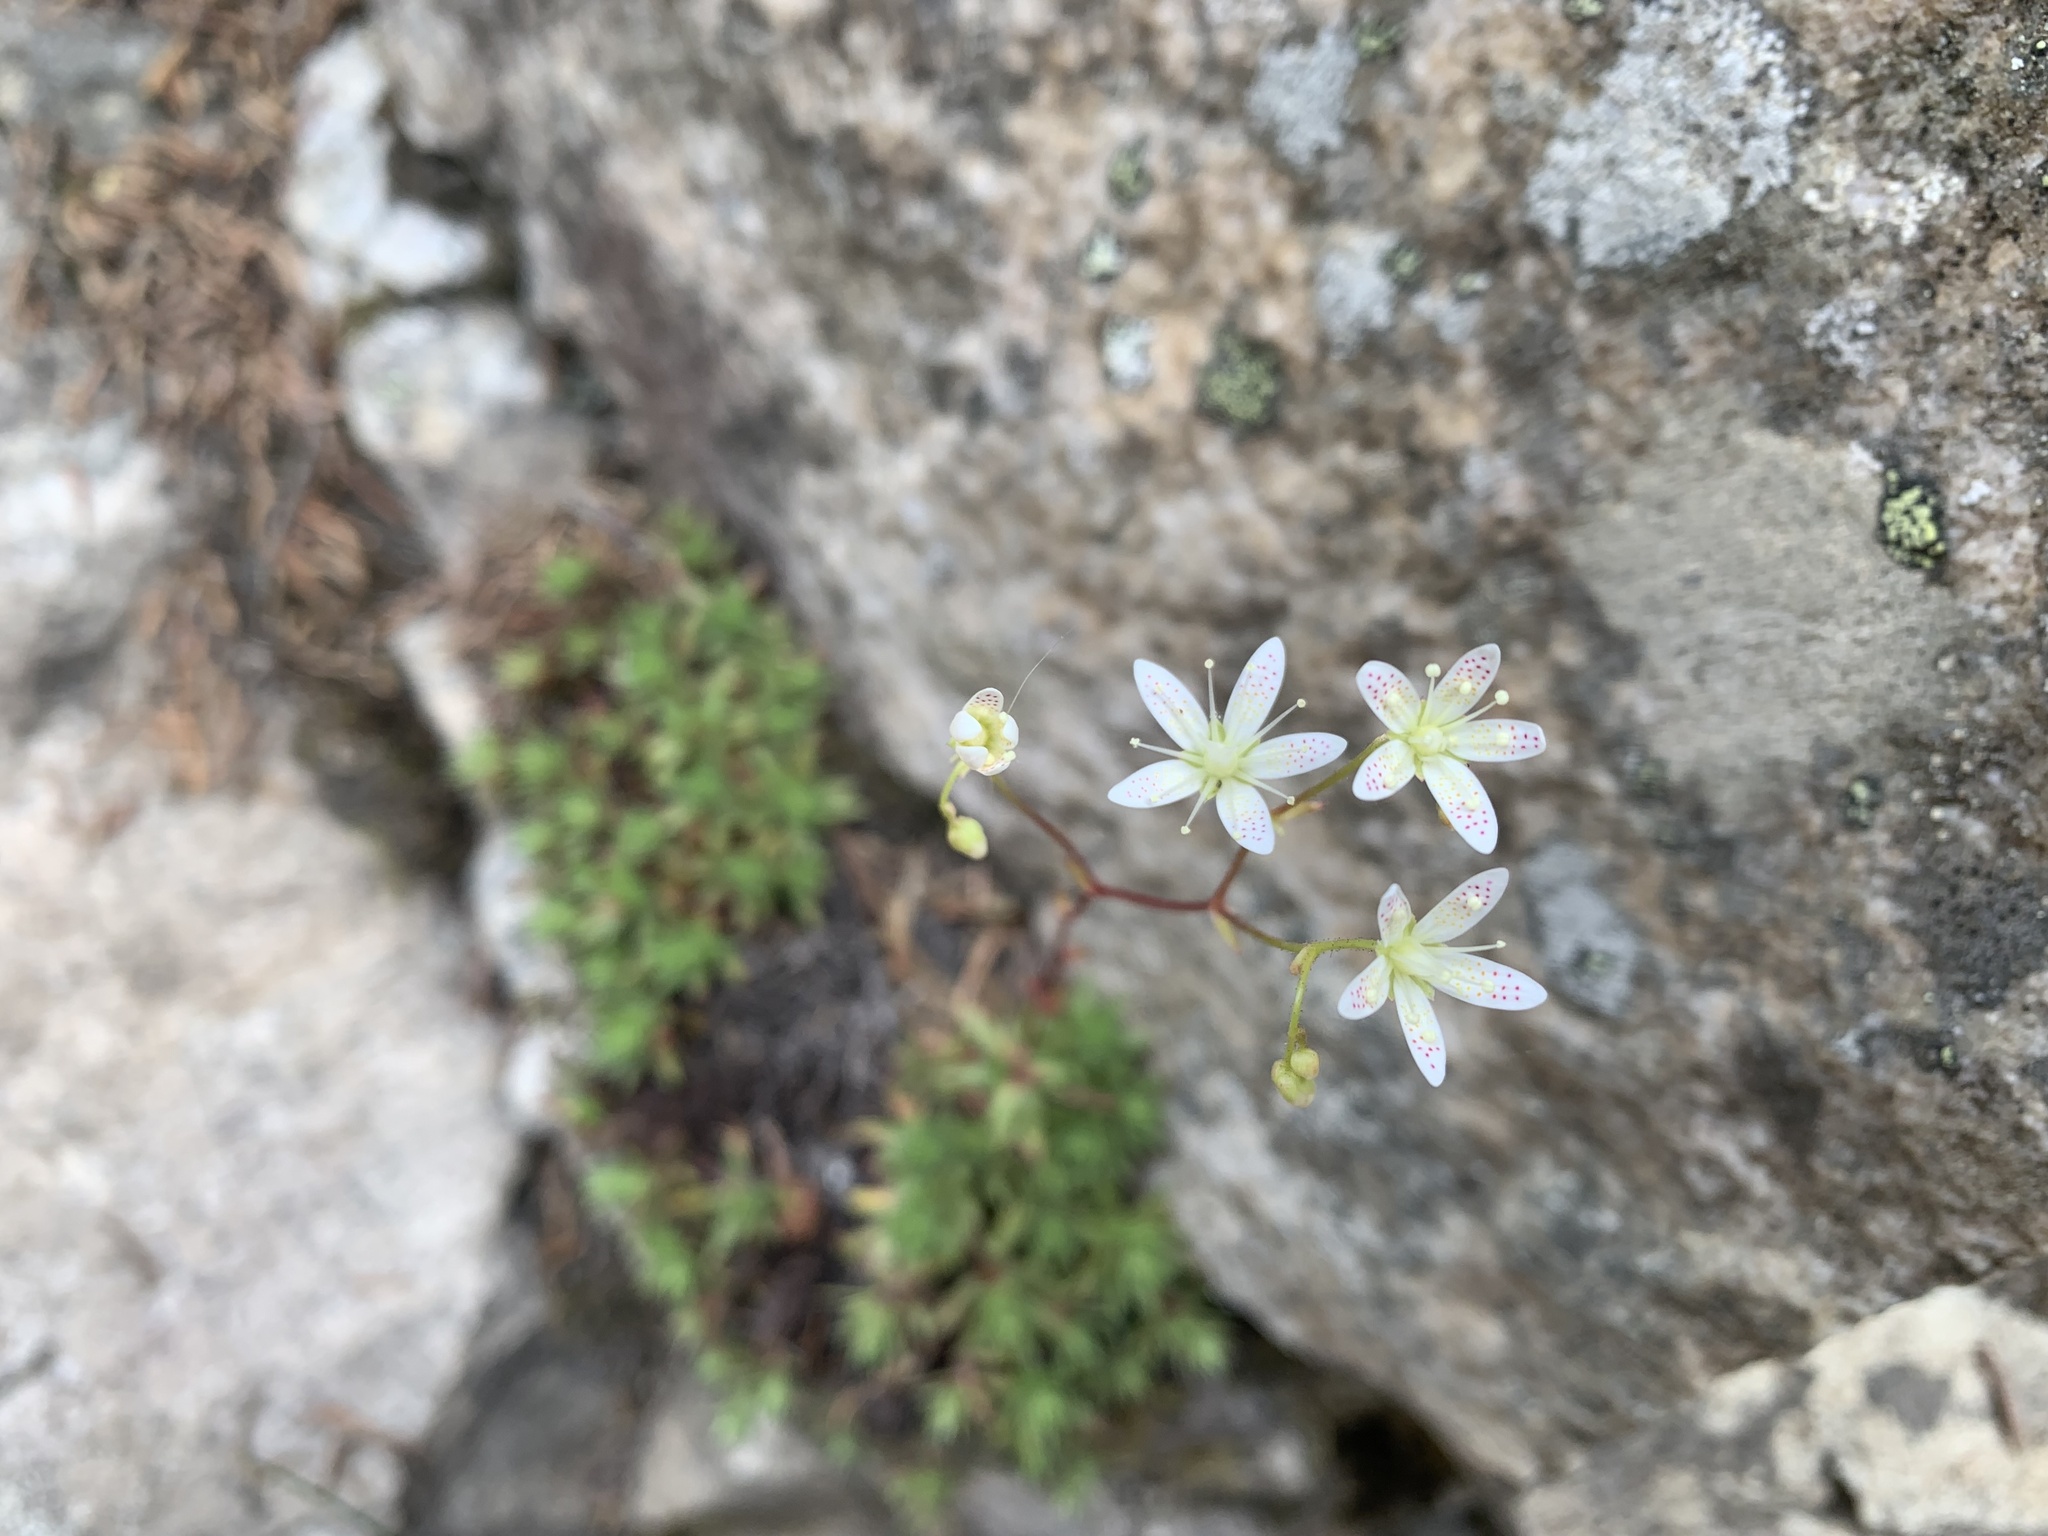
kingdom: Plantae
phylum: Tracheophyta
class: Magnoliopsida
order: Saxifragales
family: Saxifragaceae
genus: Saxifraga
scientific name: Saxifraga bronchialis
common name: Matted saxifrage
